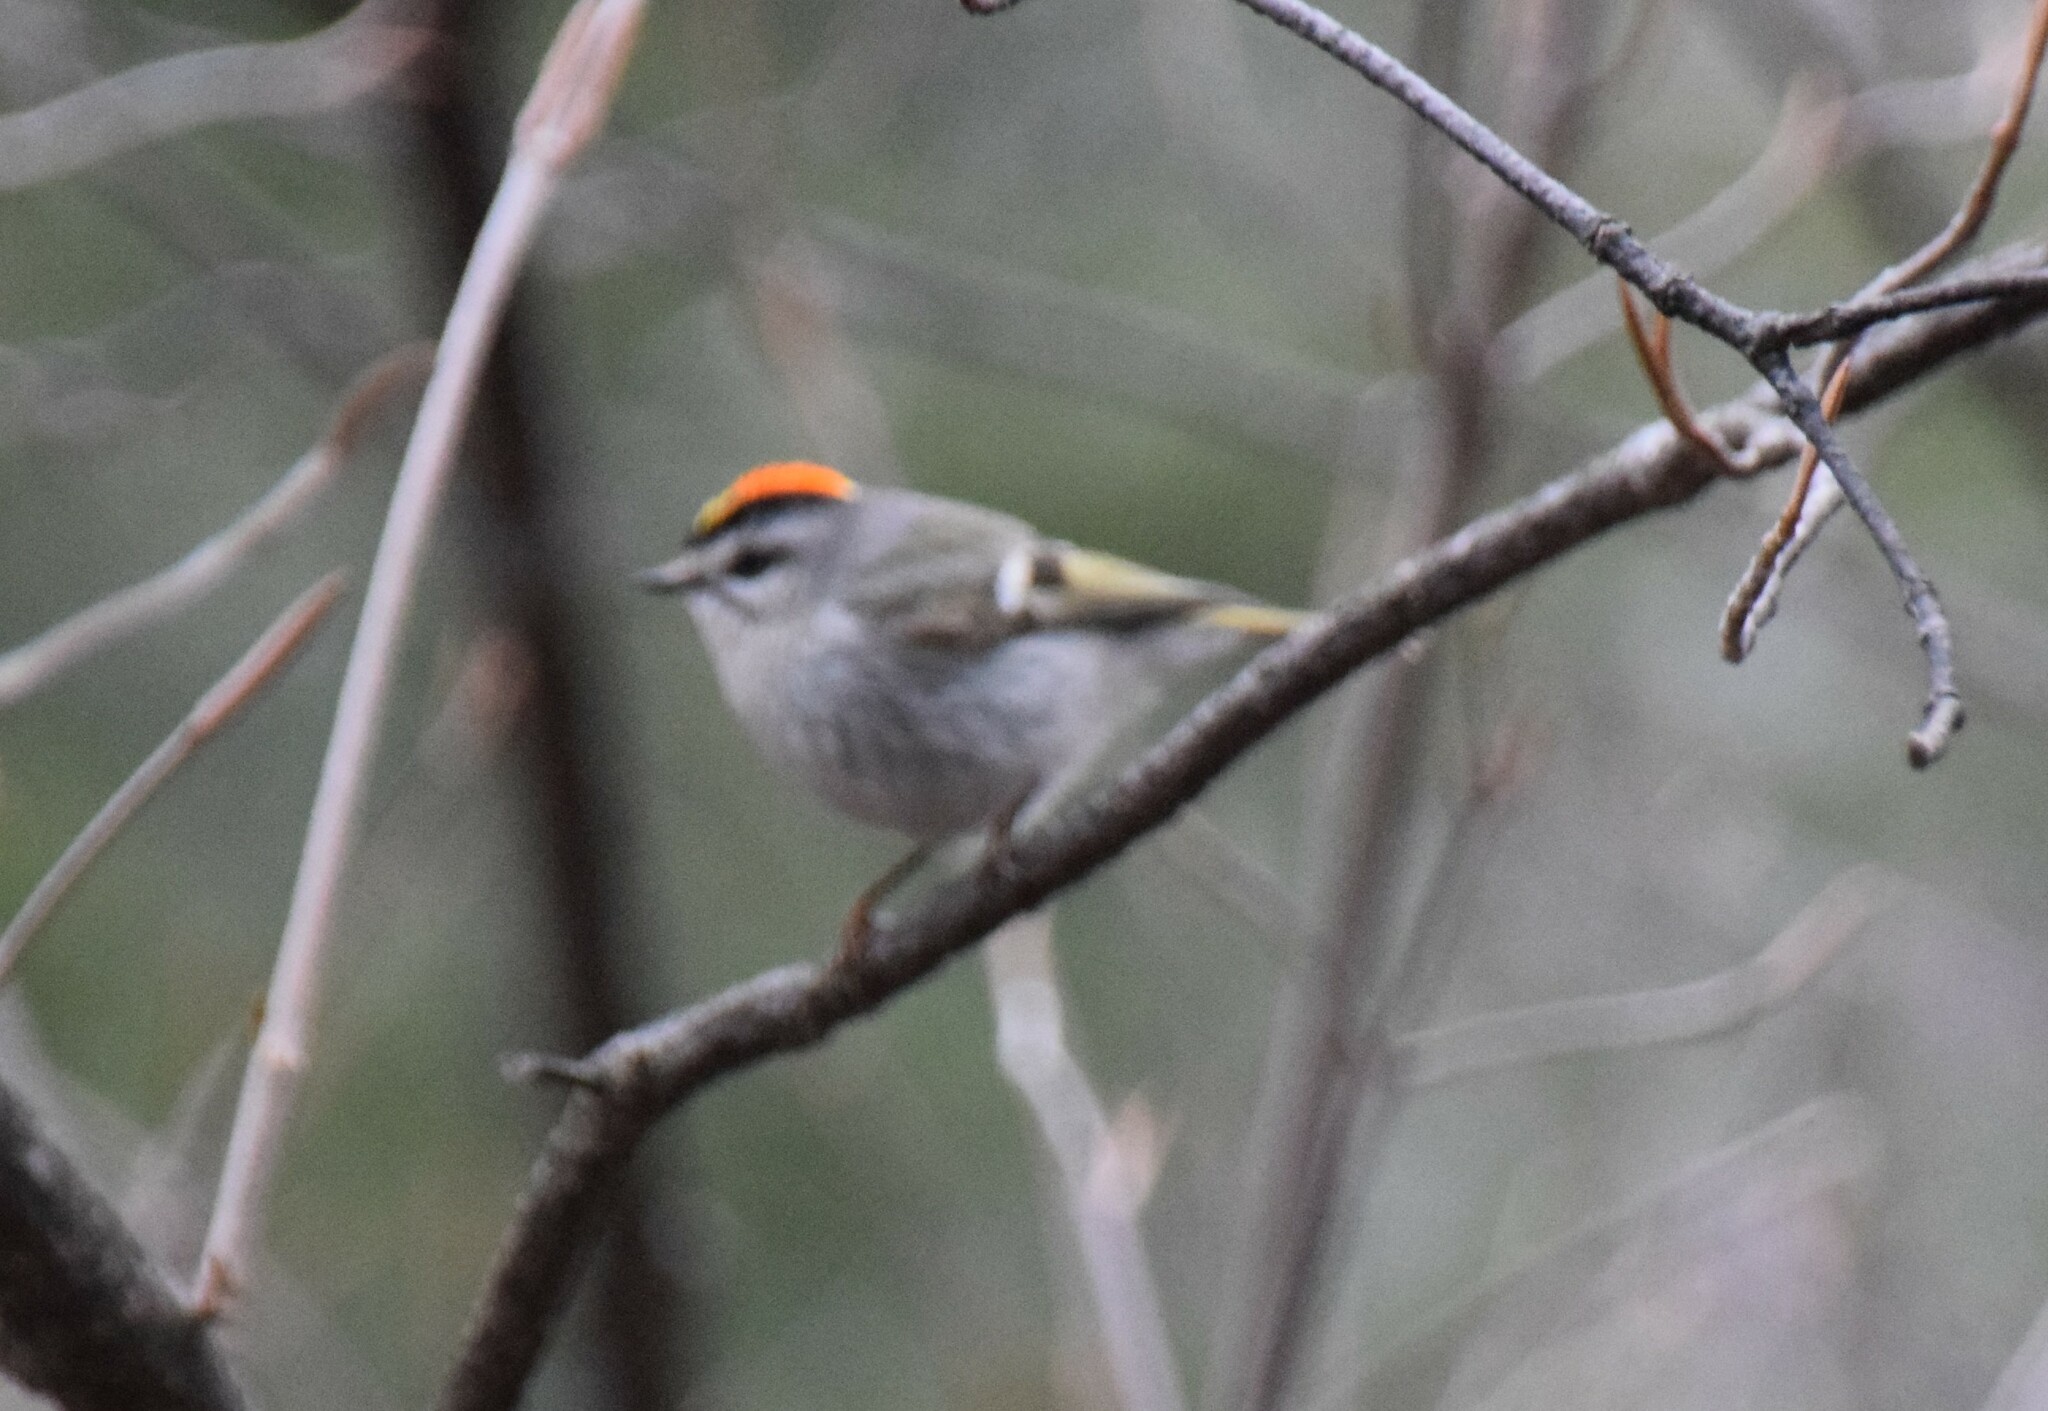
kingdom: Animalia
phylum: Chordata
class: Aves
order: Passeriformes
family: Regulidae
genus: Regulus
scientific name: Regulus satrapa
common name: Golden-crowned kinglet
